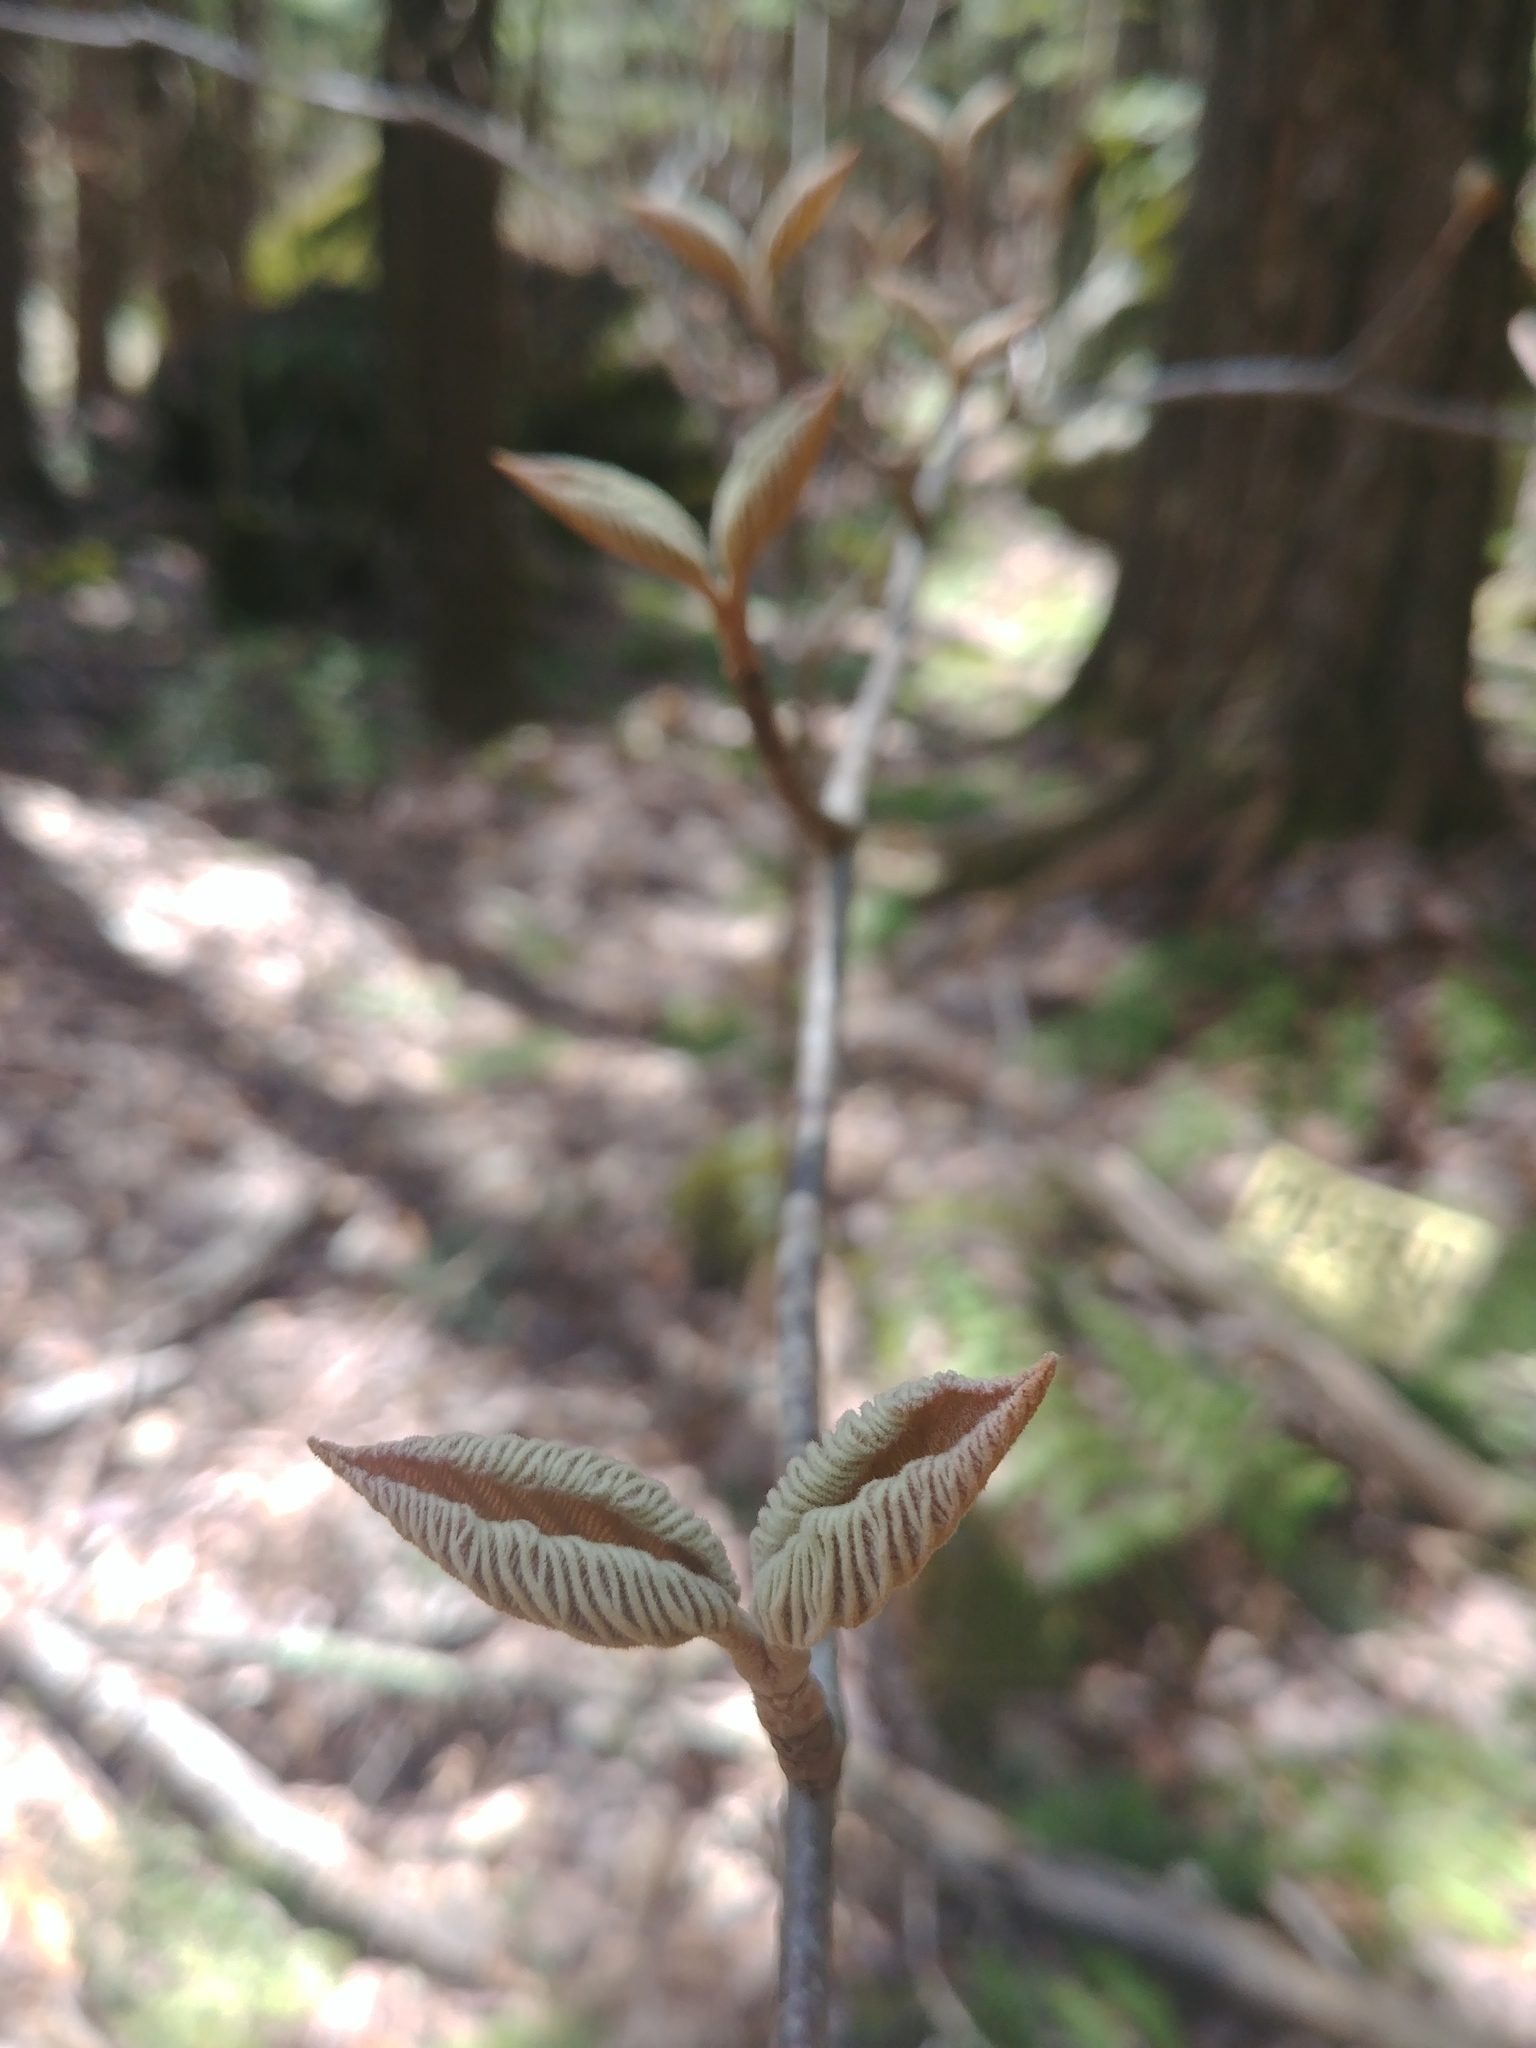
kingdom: Plantae
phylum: Tracheophyta
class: Magnoliopsida
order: Dipsacales
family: Viburnaceae
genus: Viburnum
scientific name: Viburnum lantanoides
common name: Hobblebush
